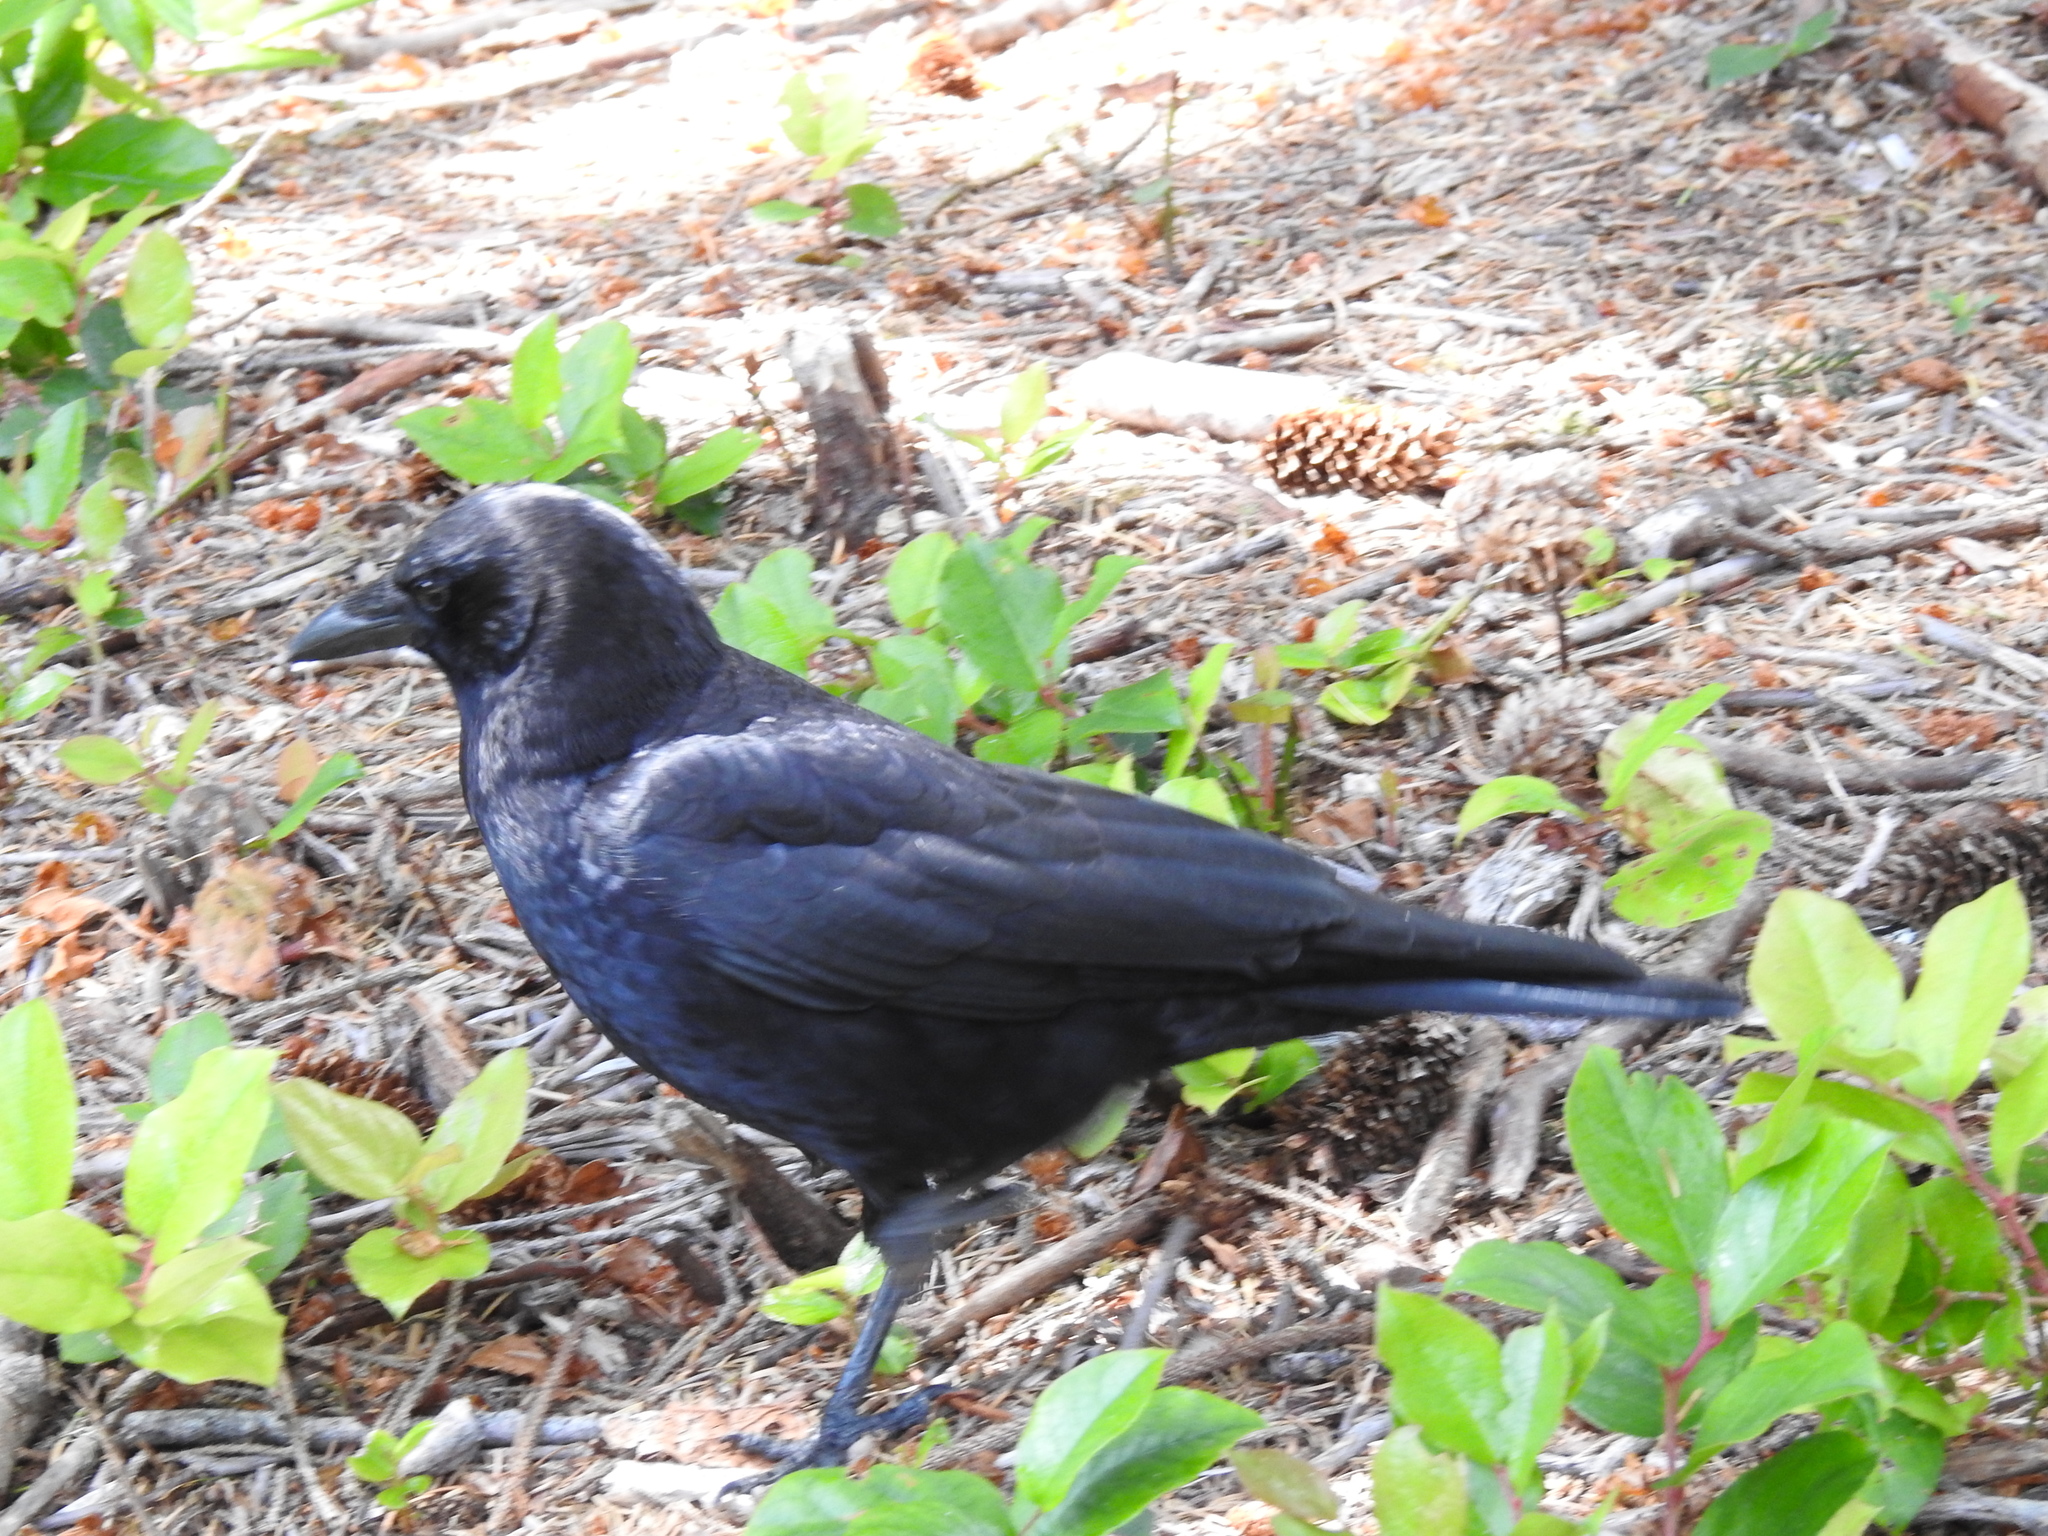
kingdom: Animalia
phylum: Chordata
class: Aves
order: Passeriformes
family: Corvidae
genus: Corvus
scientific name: Corvus brachyrhynchos
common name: American crow
